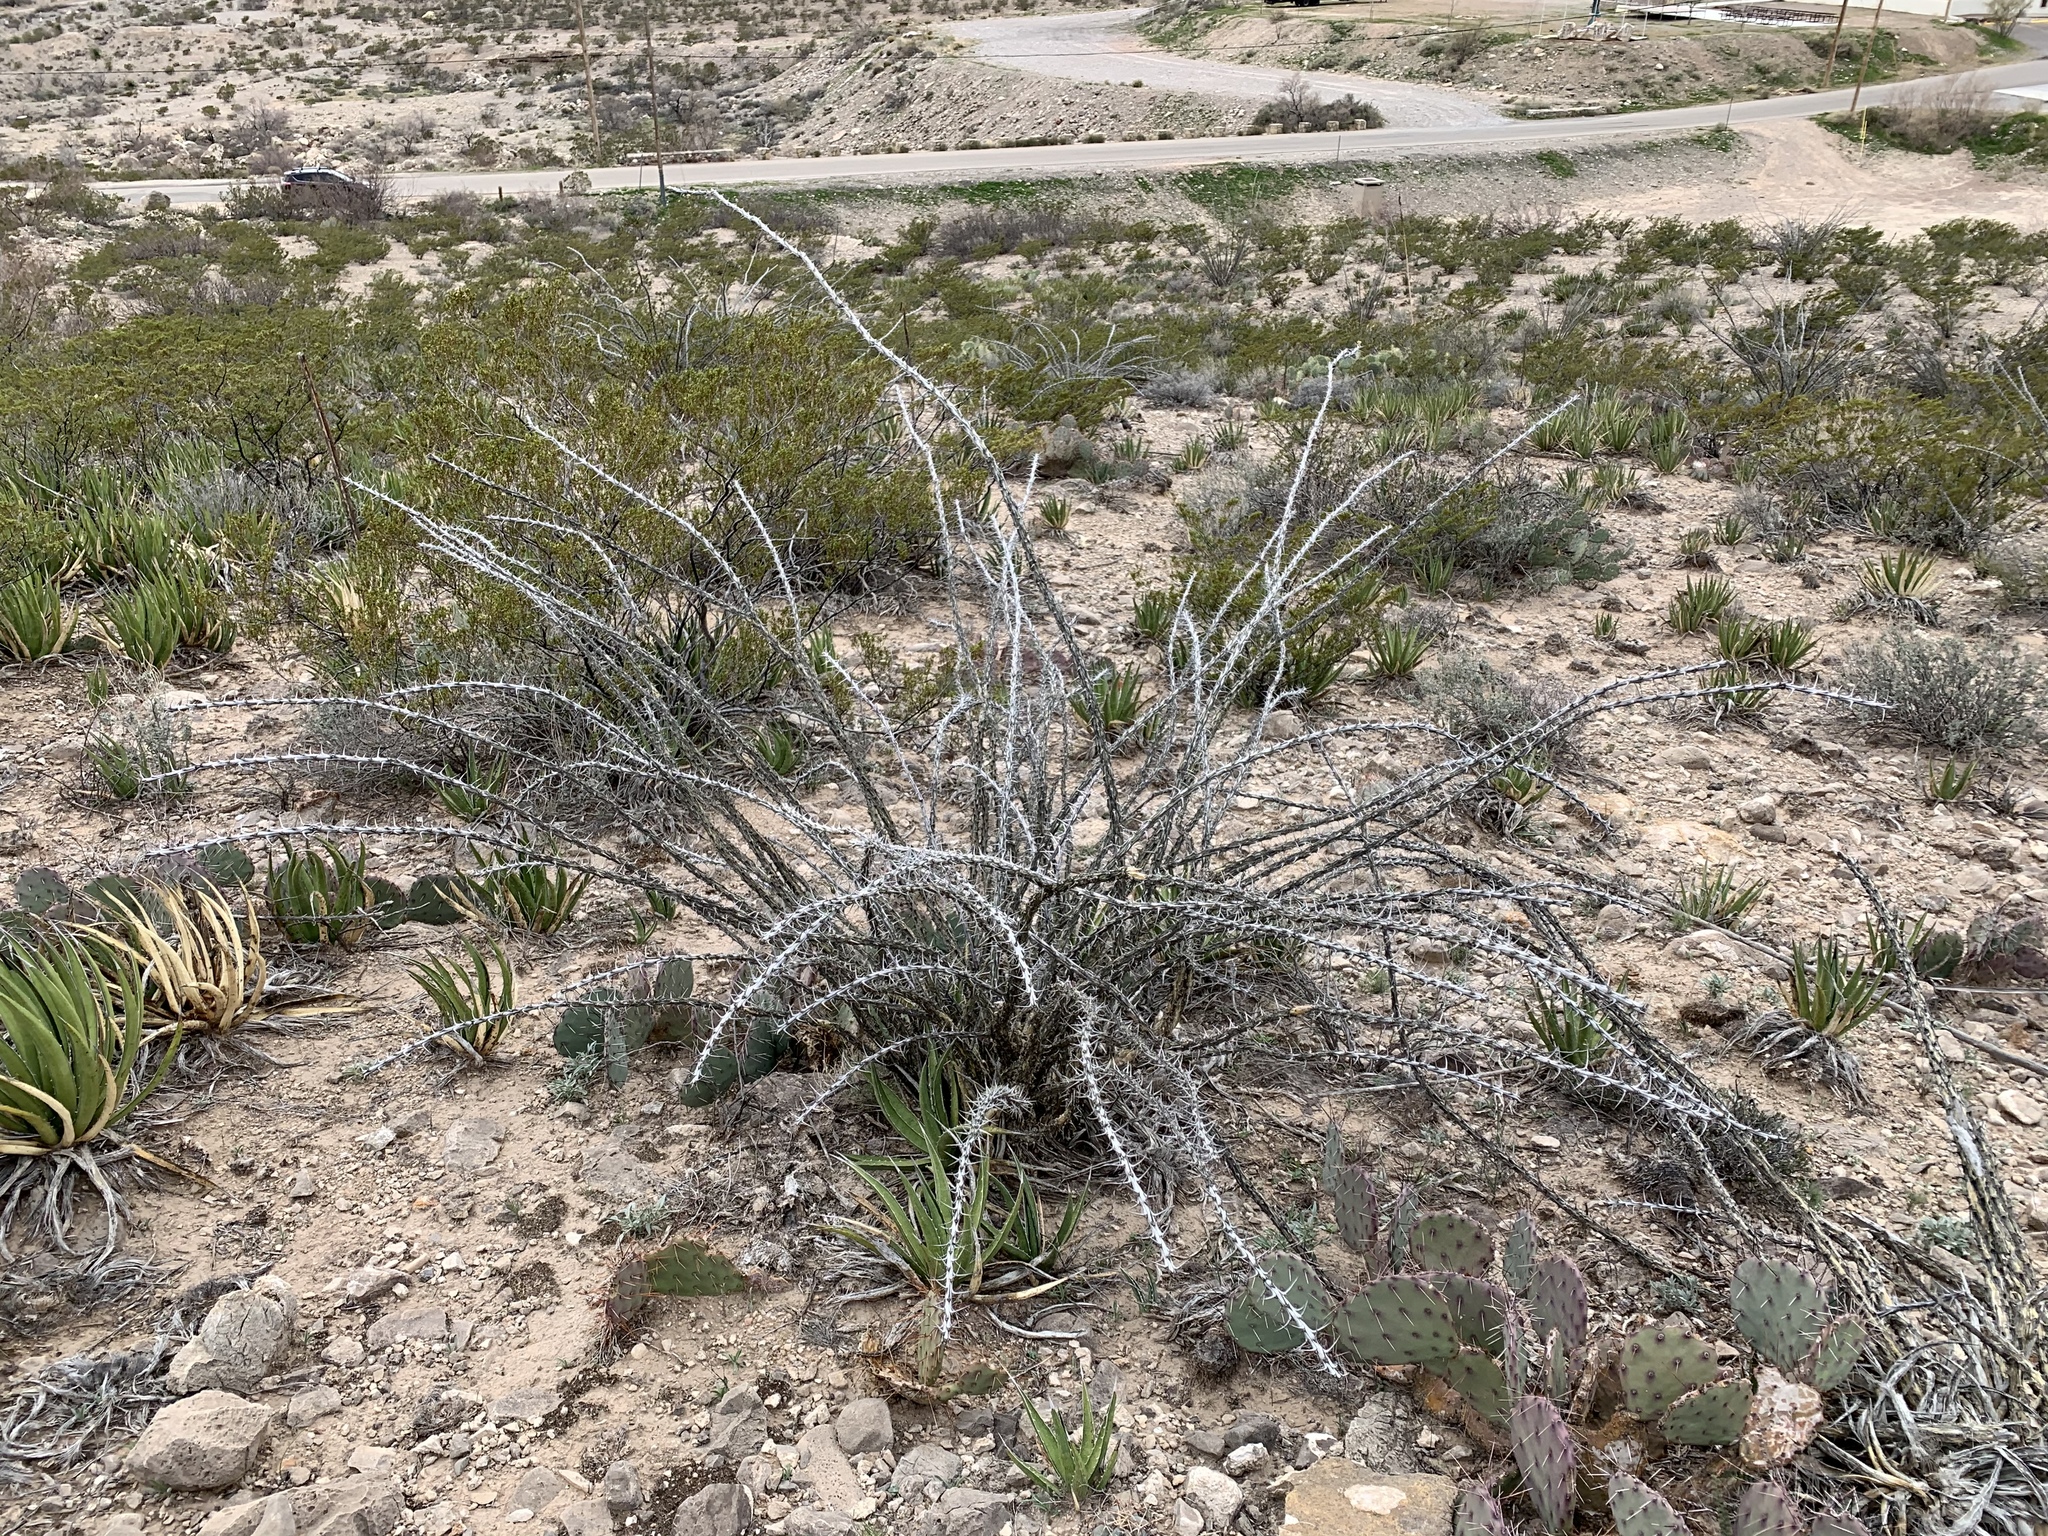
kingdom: Plantae
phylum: Tracheophyta
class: Magnoliopsida
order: Ericales
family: Fouquieriaceae
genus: Fouquieria
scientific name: Fouquieria splendens
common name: Vine-cactus
